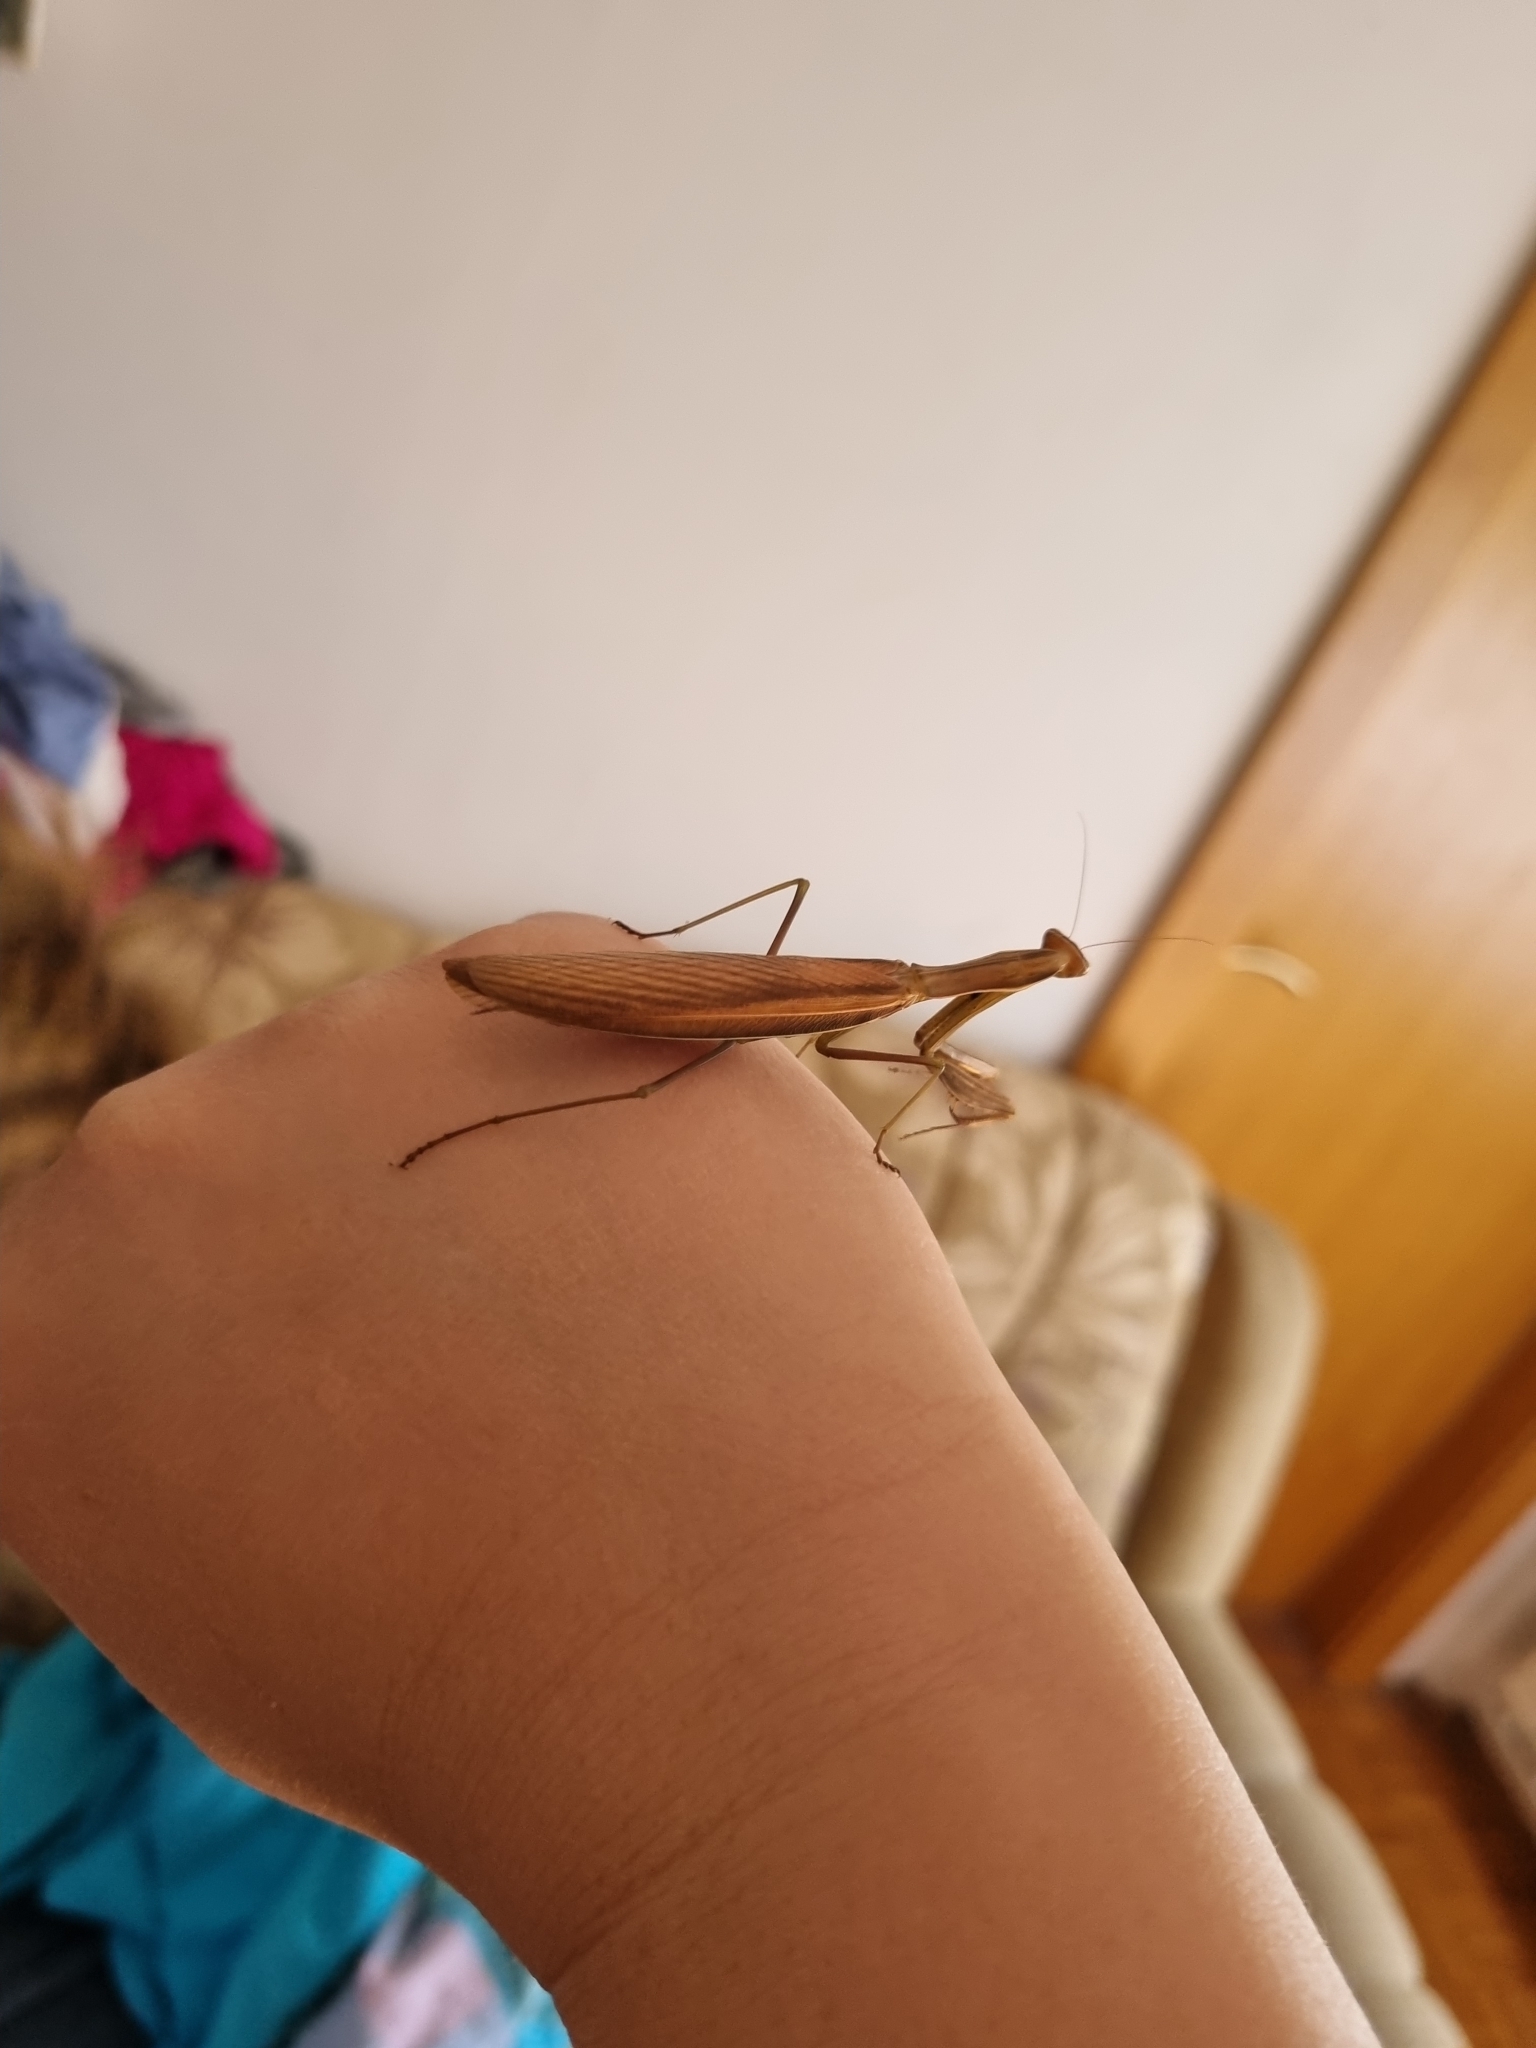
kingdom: Animalia
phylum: Arthropoda
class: Insecta
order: Mantodea
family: Mantidae
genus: Mantis
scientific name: Mantis religiosa
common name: Praying mantis
